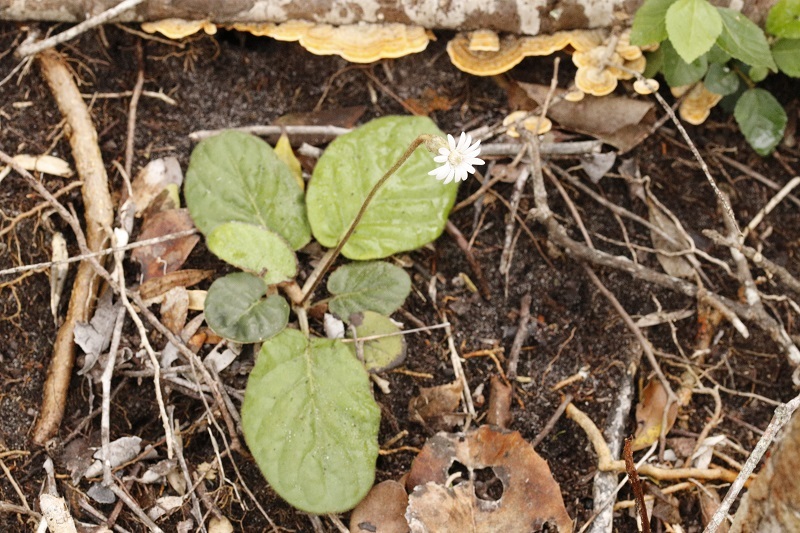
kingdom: Plantae
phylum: Tracheophyta
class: Magnoliopsida
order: Asterales
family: Asteraceae
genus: Piloselloides
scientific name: Piloselloides cordata
